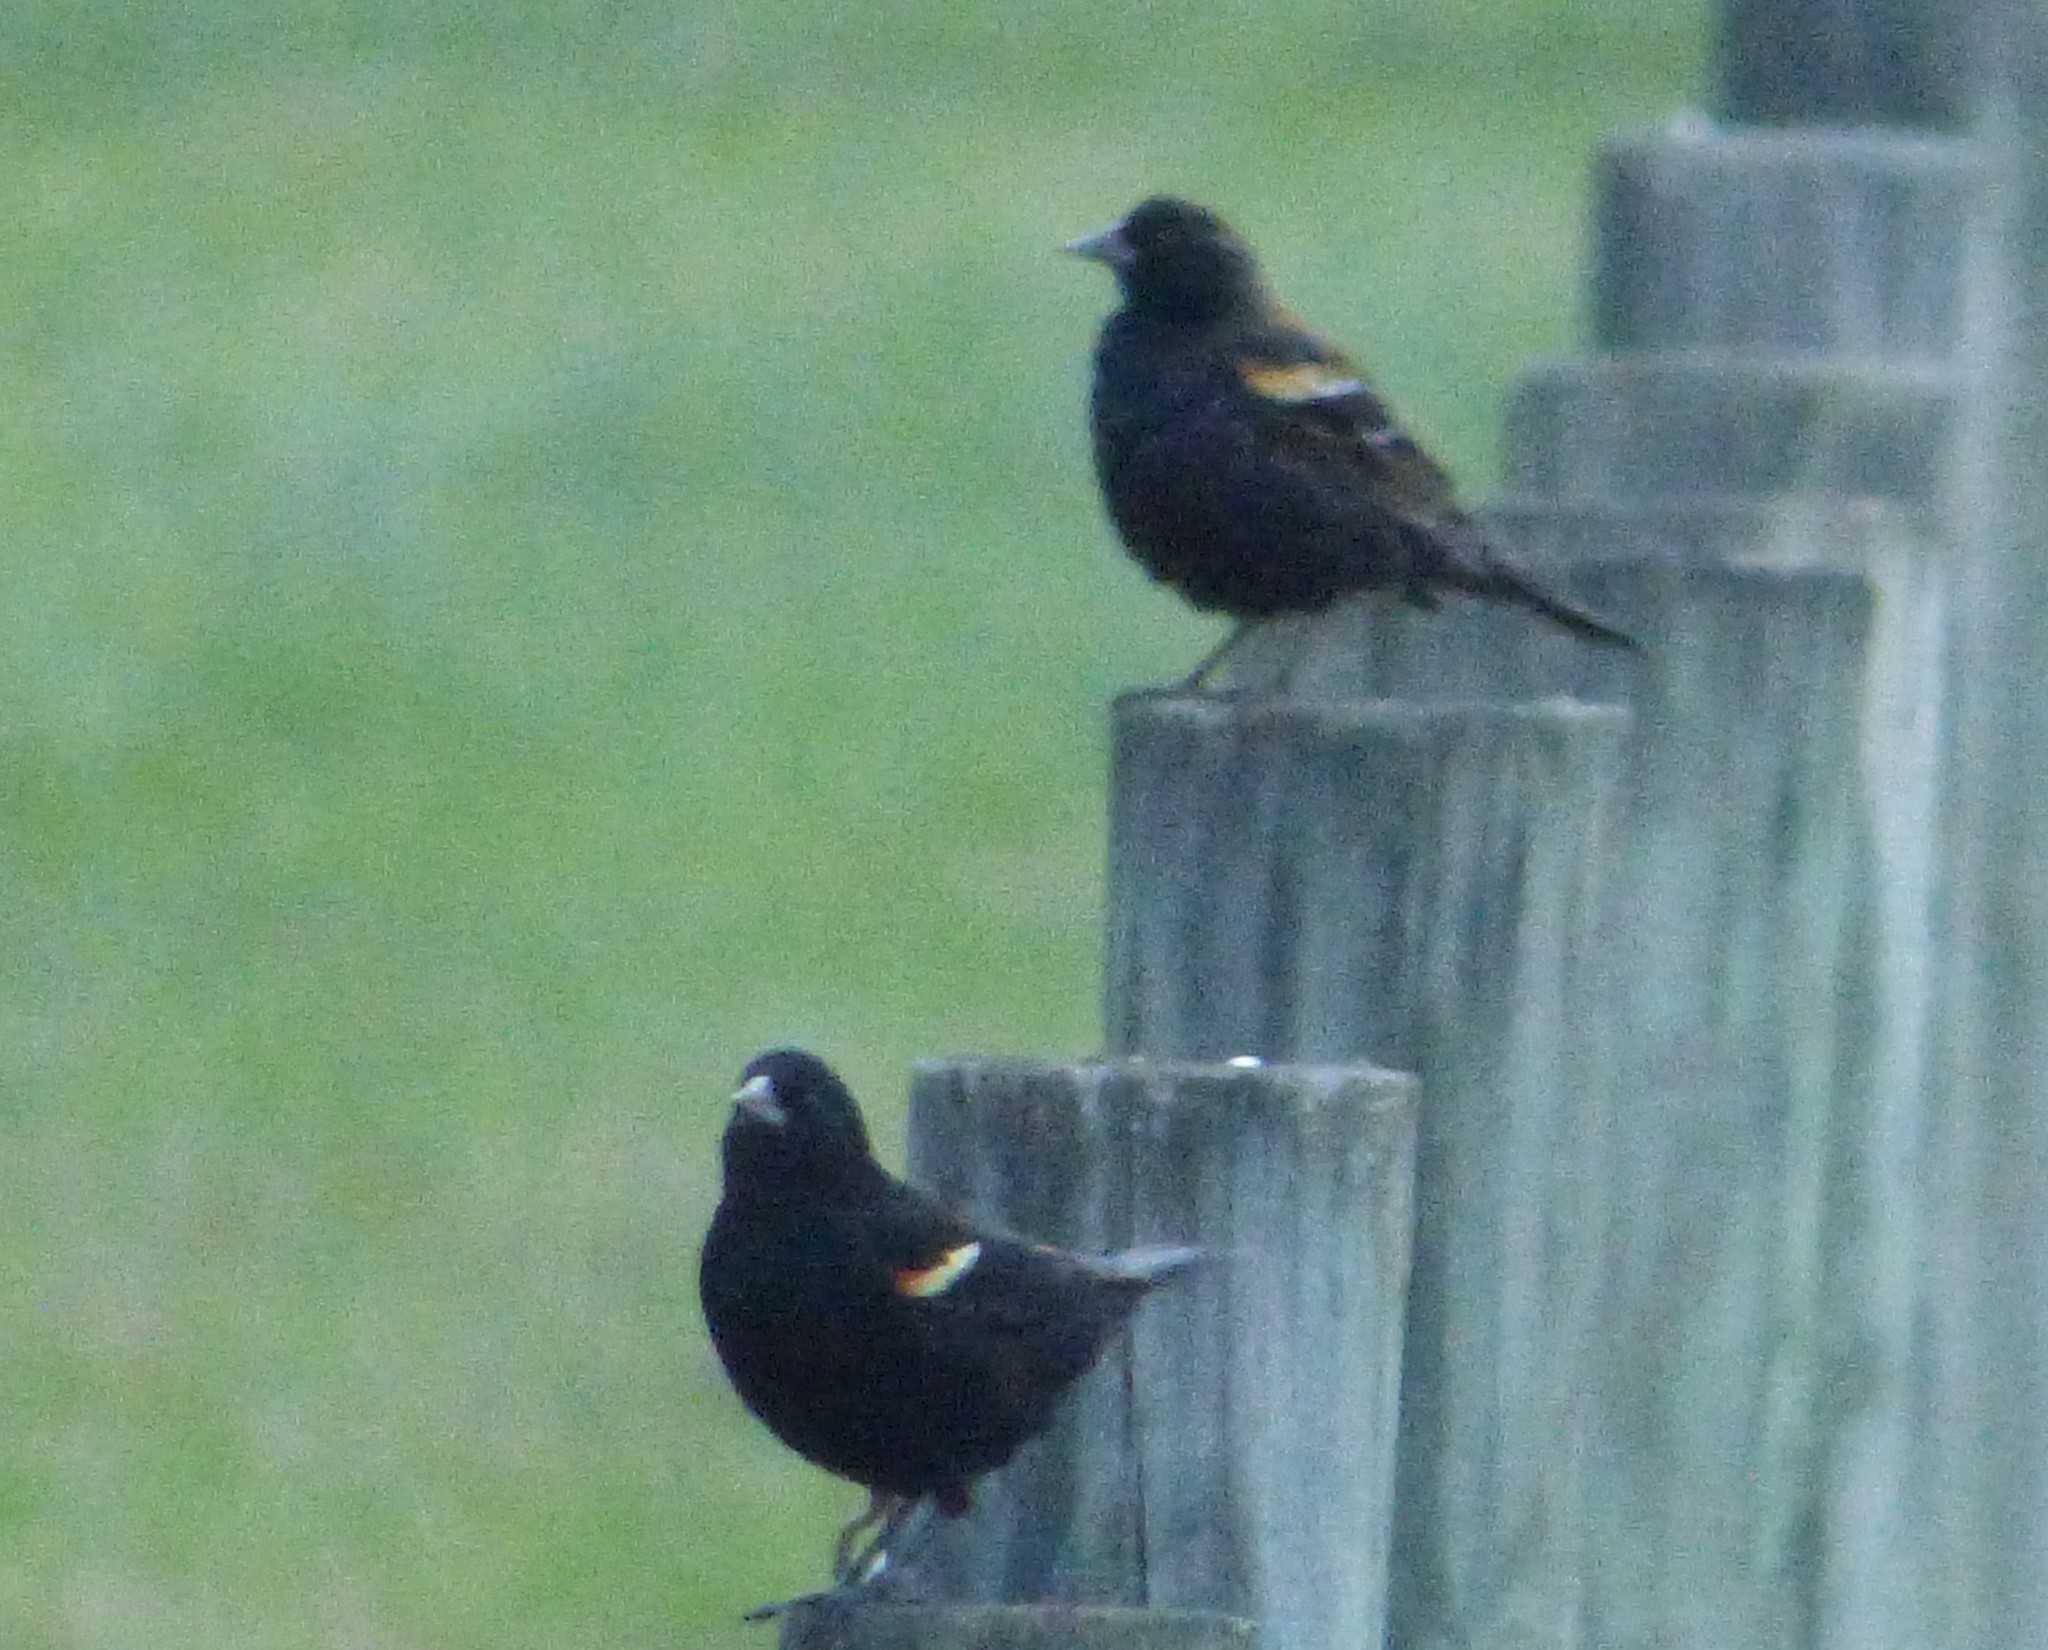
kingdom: Animalia
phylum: Chordata
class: Aves
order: Passeriformes
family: Icteridae
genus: Agelaius
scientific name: Agelaius phoeniceus
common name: Red-winged blackbird
